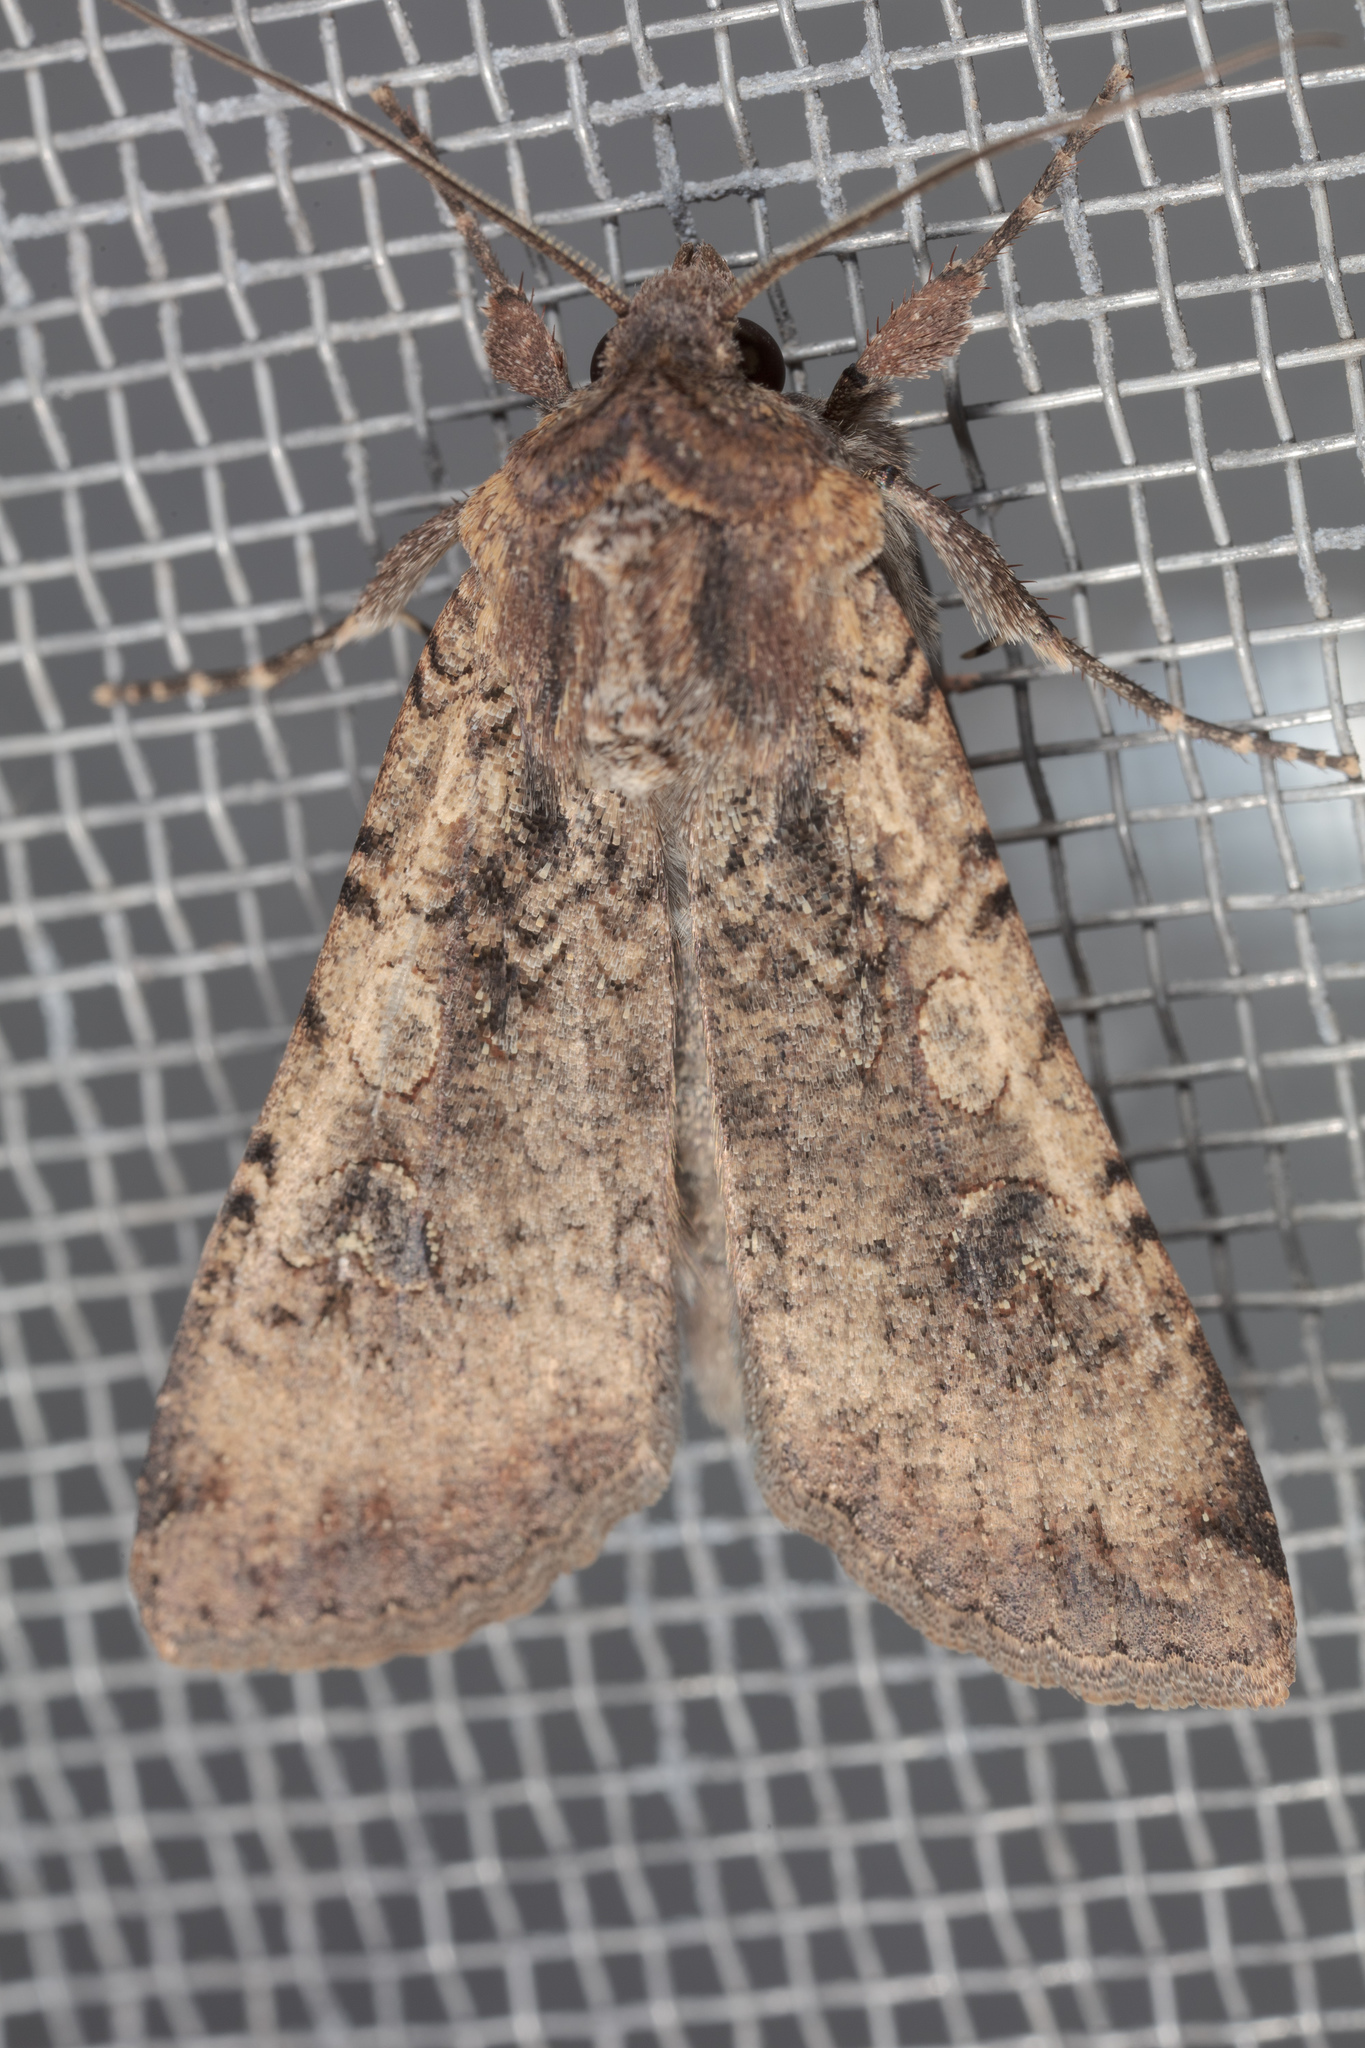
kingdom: Animalia
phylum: Arthropoda
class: Insecta
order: Lepidoptera
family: Noctuidae
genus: Peridroma
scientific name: Peridroma saucia
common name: Pearly underwing
